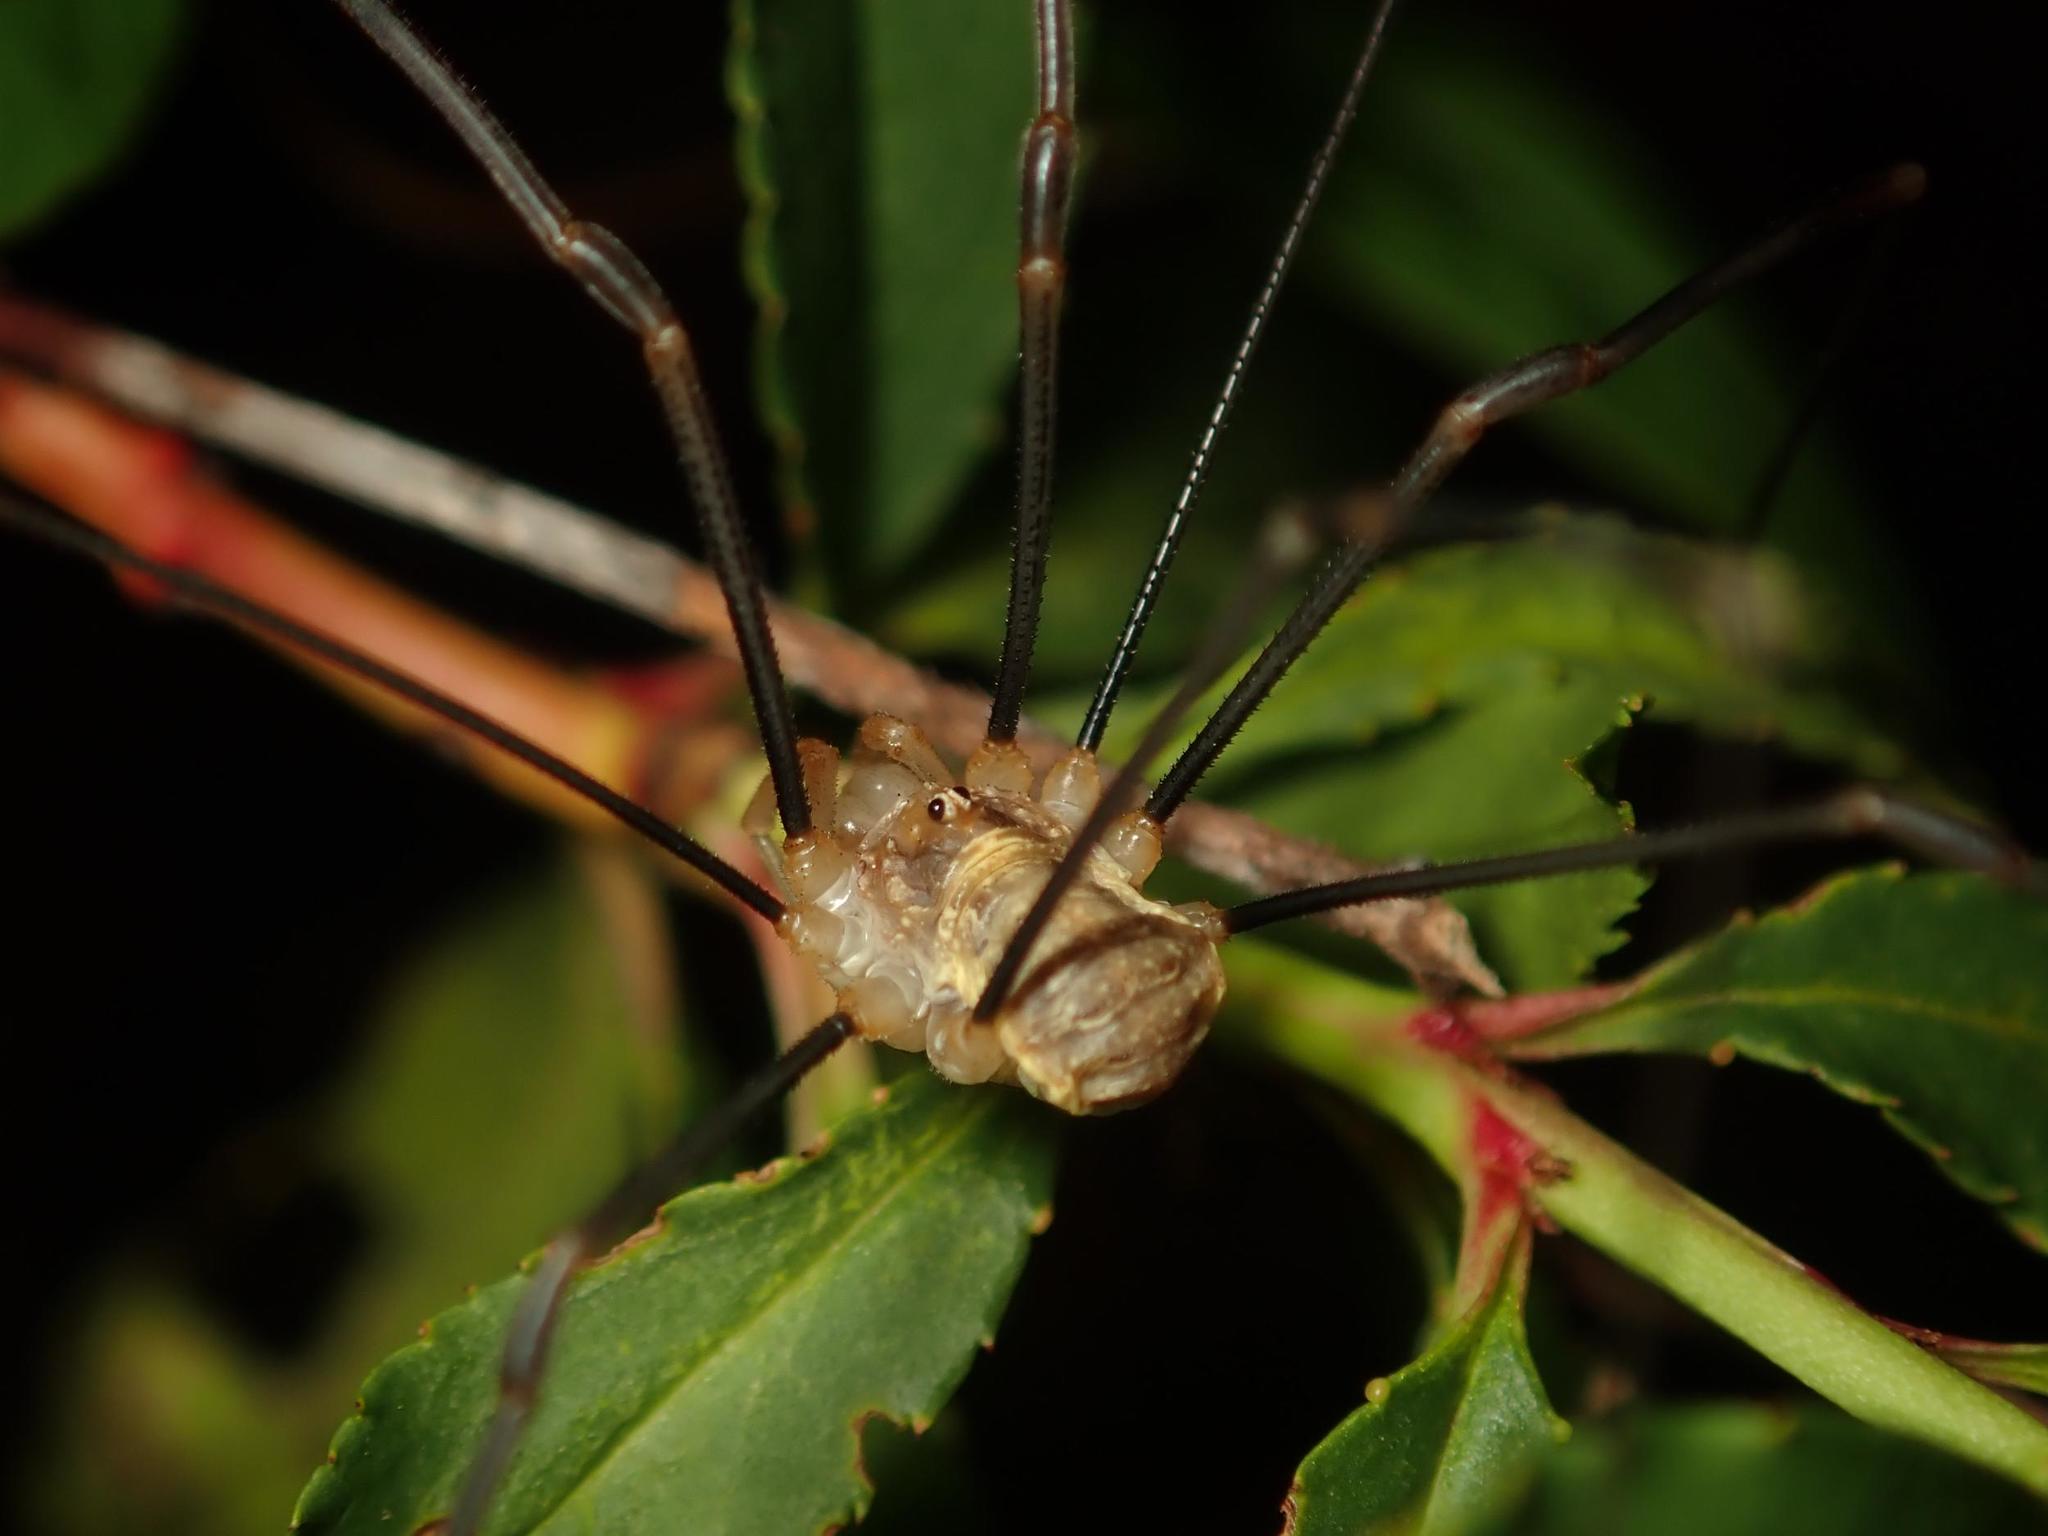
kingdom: Animalia
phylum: Arthropoda
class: Arachnida
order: Opiliones
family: Phalangiidae
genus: Opilio
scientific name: Opilio canestrinii
